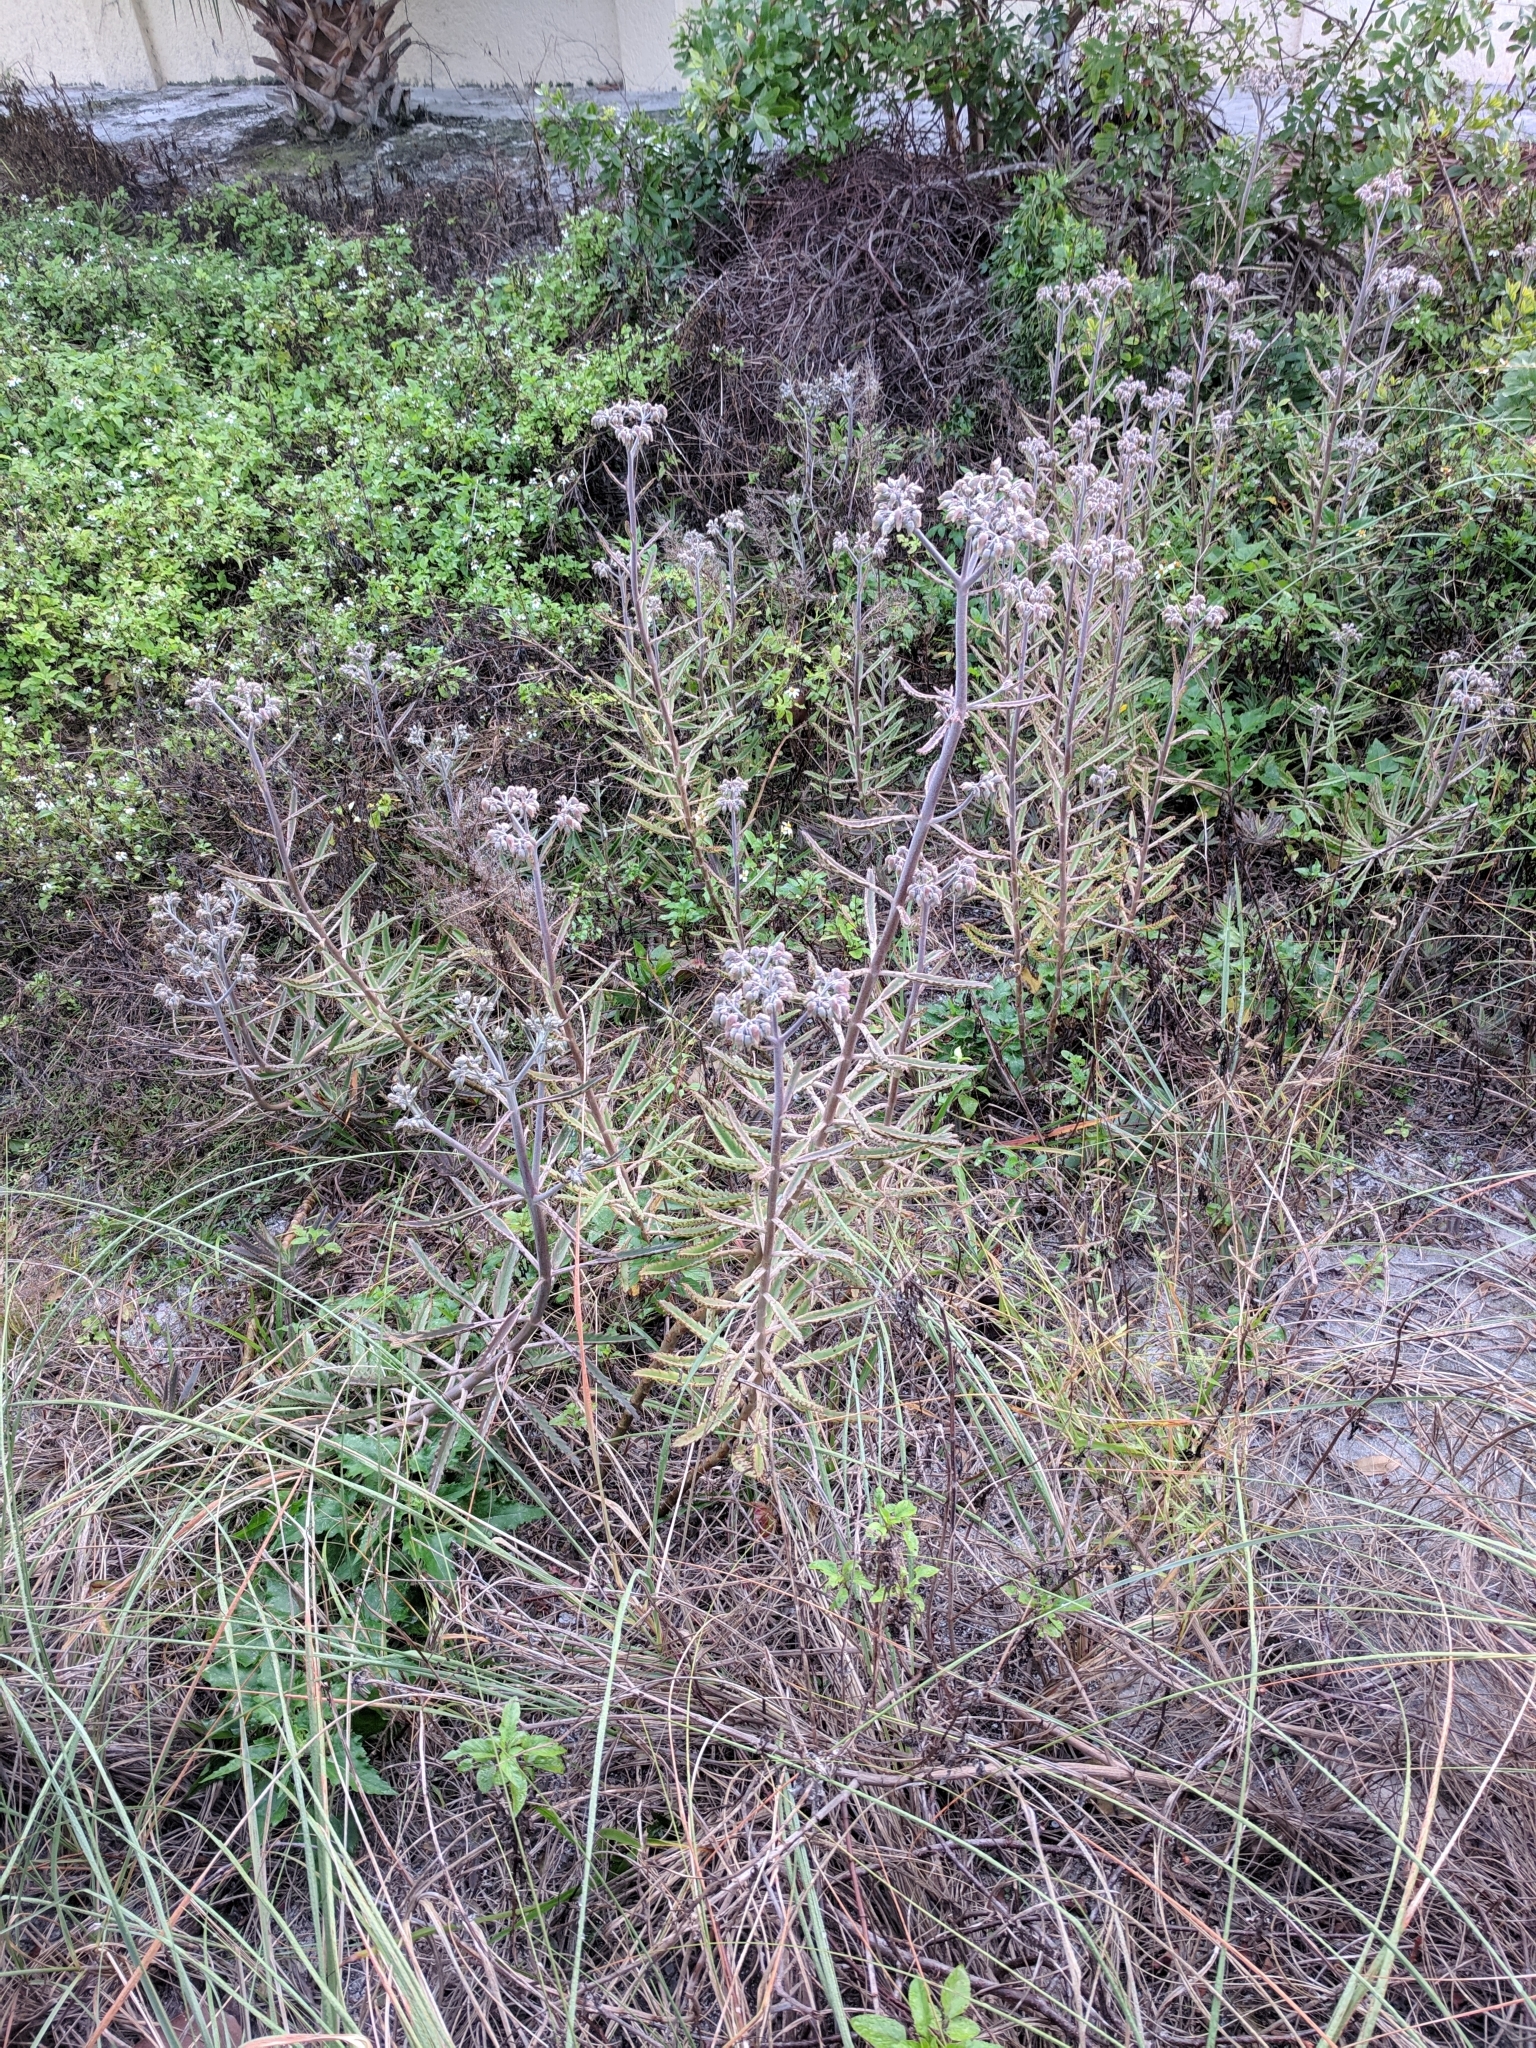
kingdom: Plantae
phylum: Tracheophyta
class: Magnoliopsida
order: Saxifragales
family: Crassulaceae
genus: Kalanchoe
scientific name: Kalanchoe houghtonii
